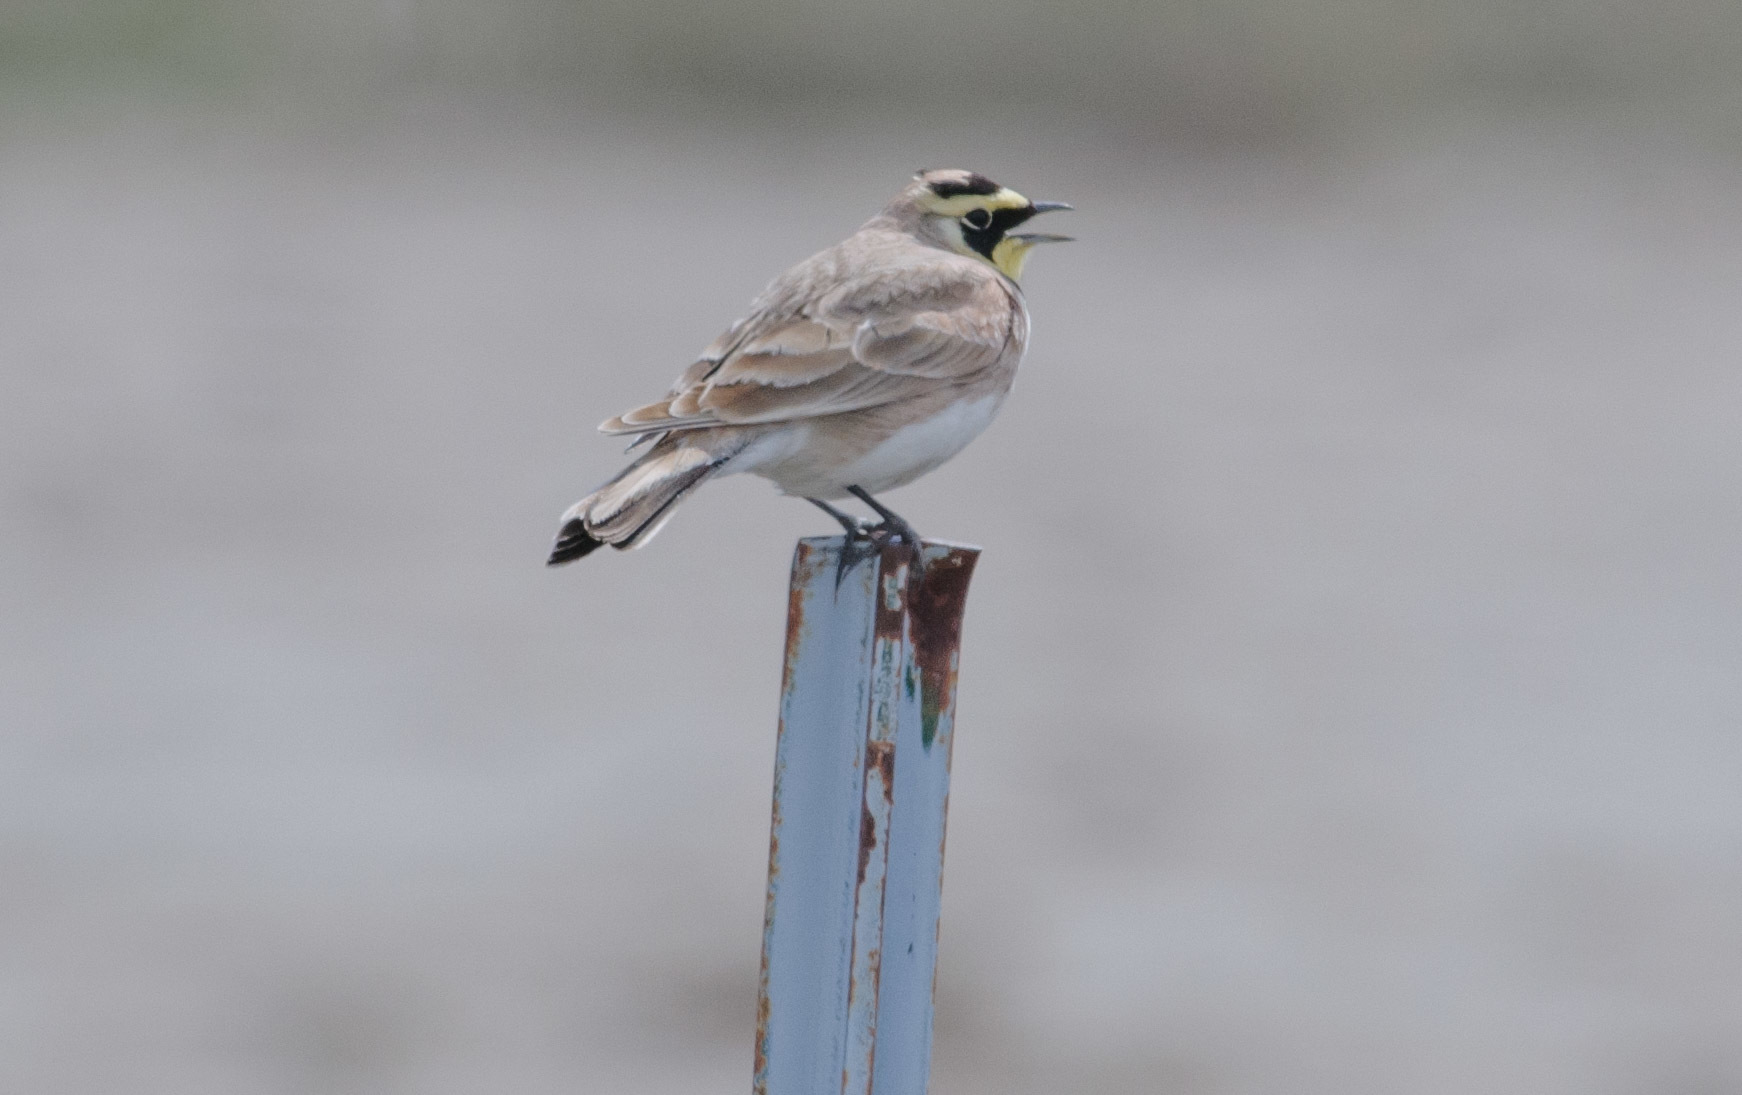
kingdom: Animalia
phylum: Chordata
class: Aves
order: Passeriformes
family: Alaudidae
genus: Eremophila
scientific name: Eremophila alpestris
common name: Horned lark
